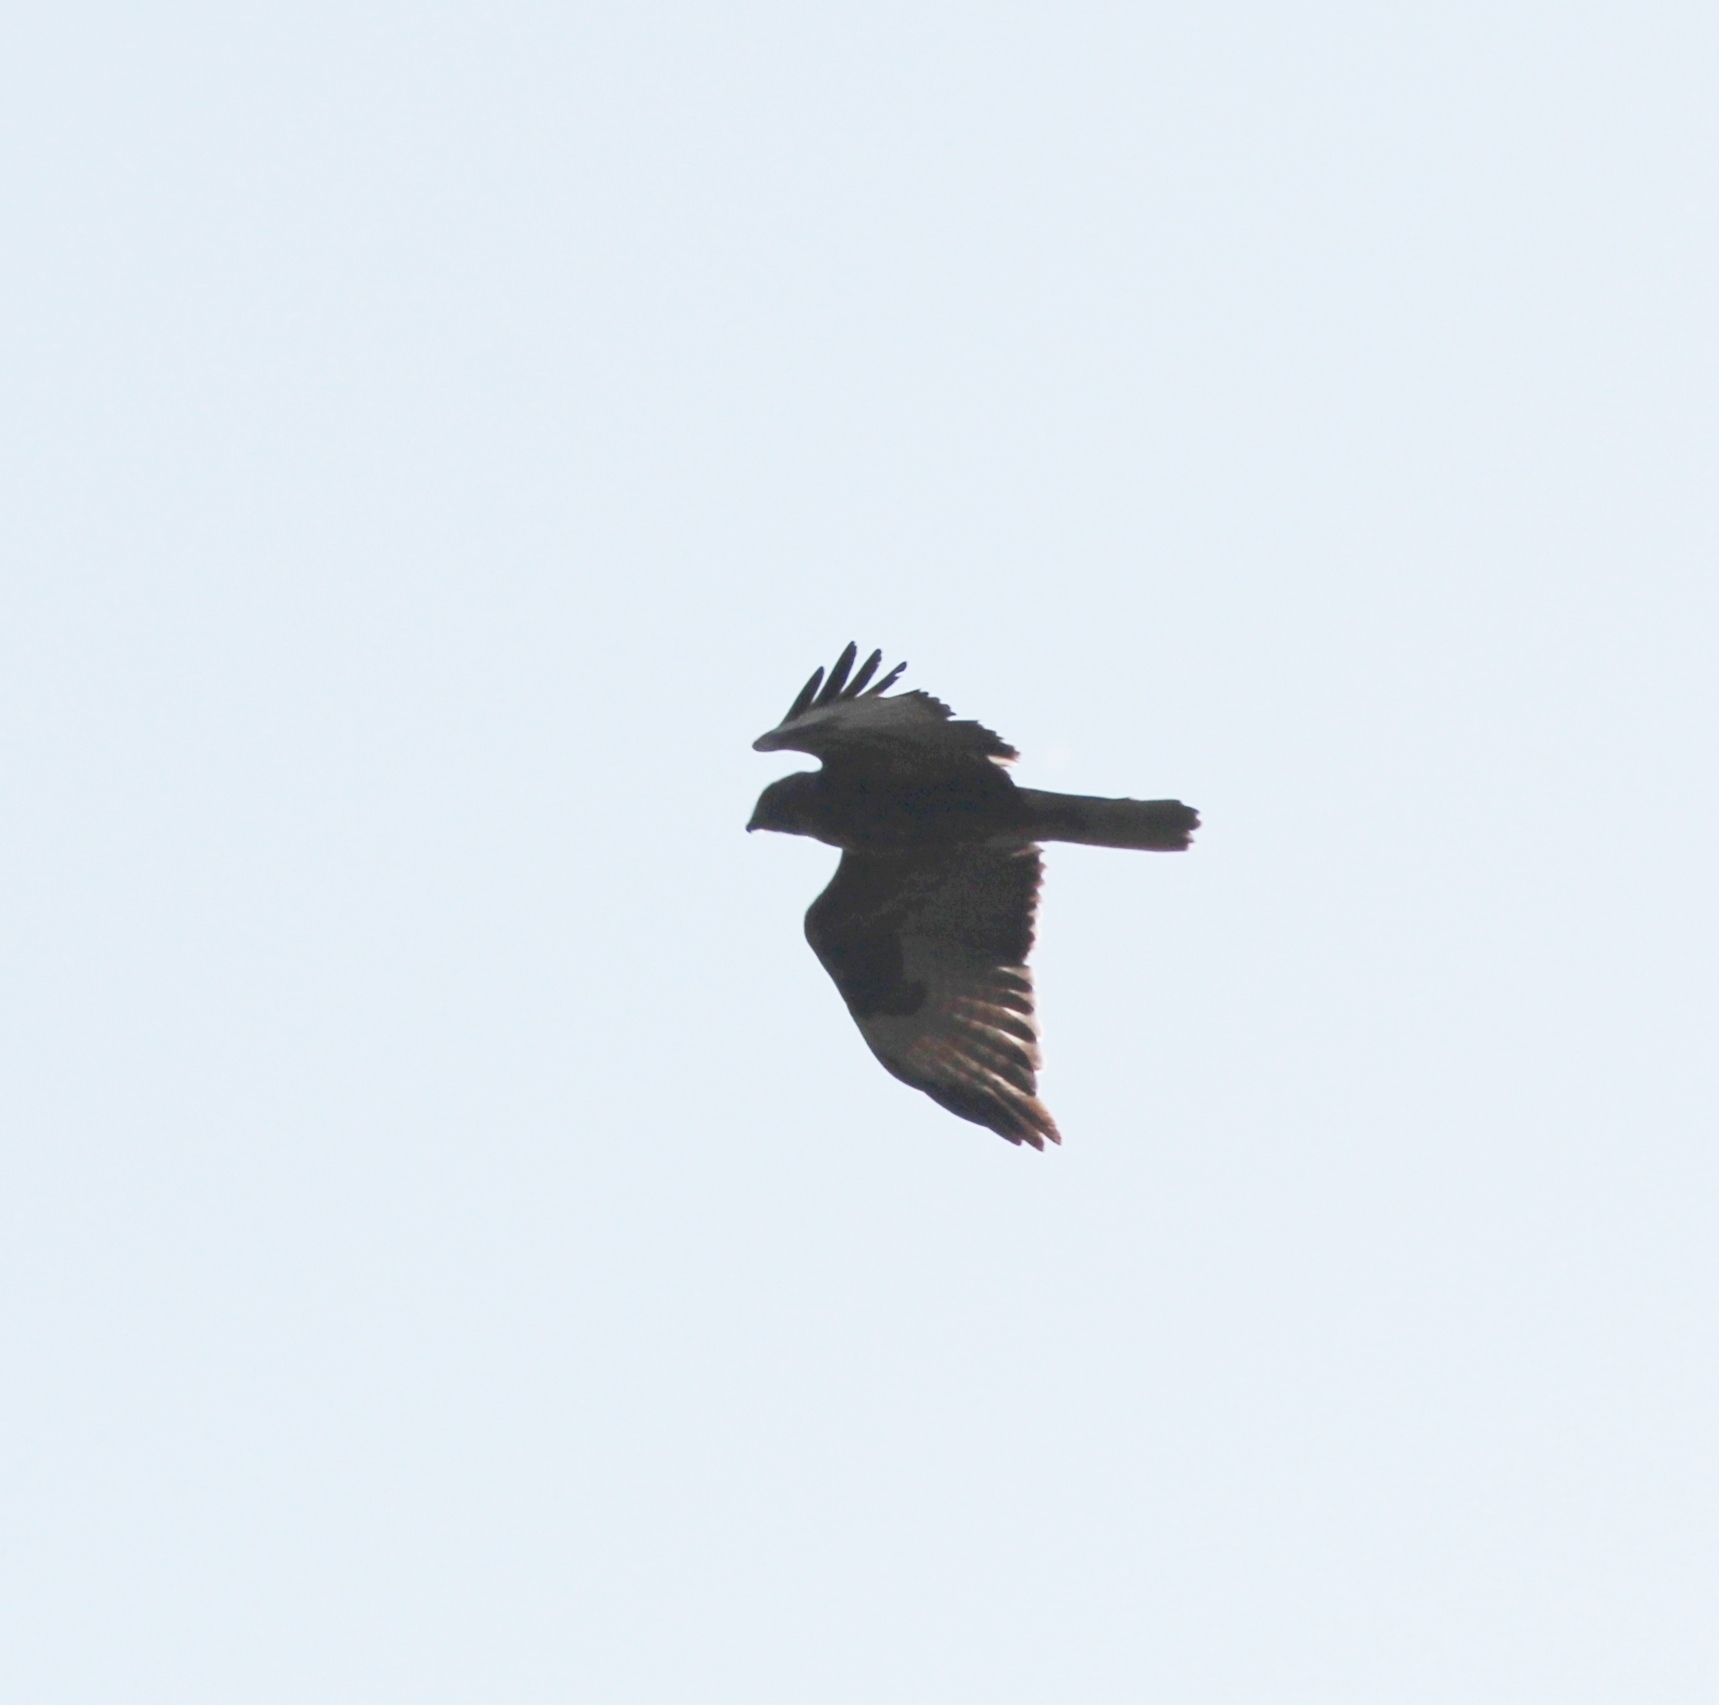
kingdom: Animalia
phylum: Chordata
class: Aves
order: Accipitriformes
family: Accipitridae
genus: Buteo
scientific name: Buteo japonicus
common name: Eastern buzzard
